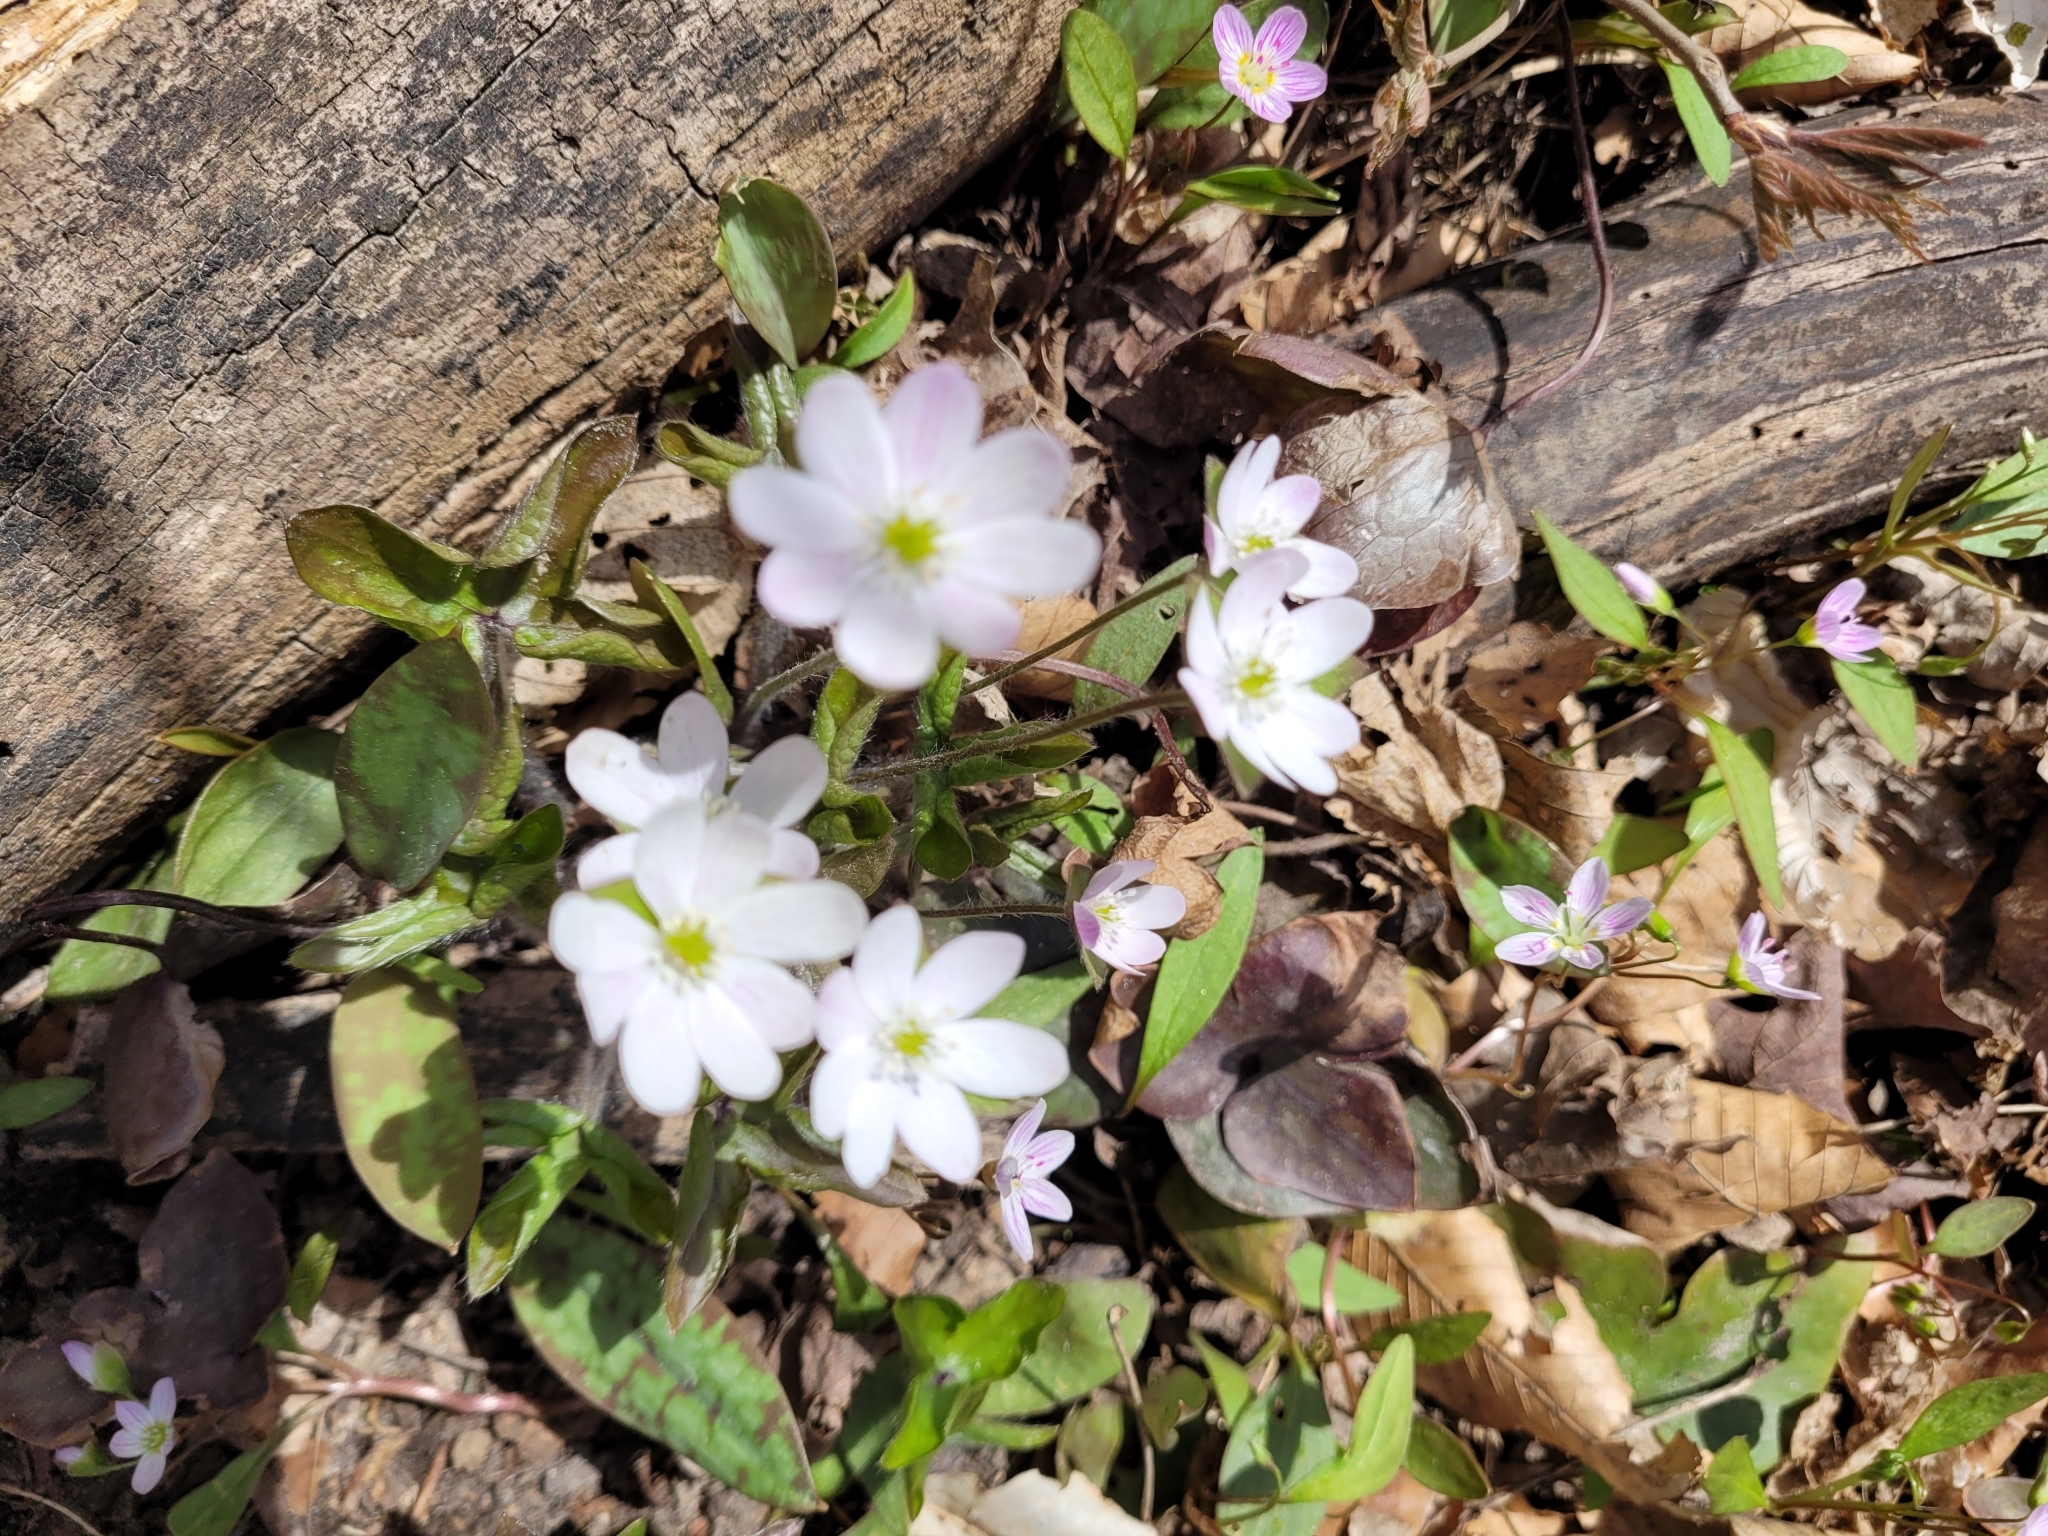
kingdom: Plantae
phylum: Tracheophyta
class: Magnoliopsida
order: Ranunculales
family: Ranunculaceae
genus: Hepatica
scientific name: Hepatica acutiloba
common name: Sharp-lobed hepatica
